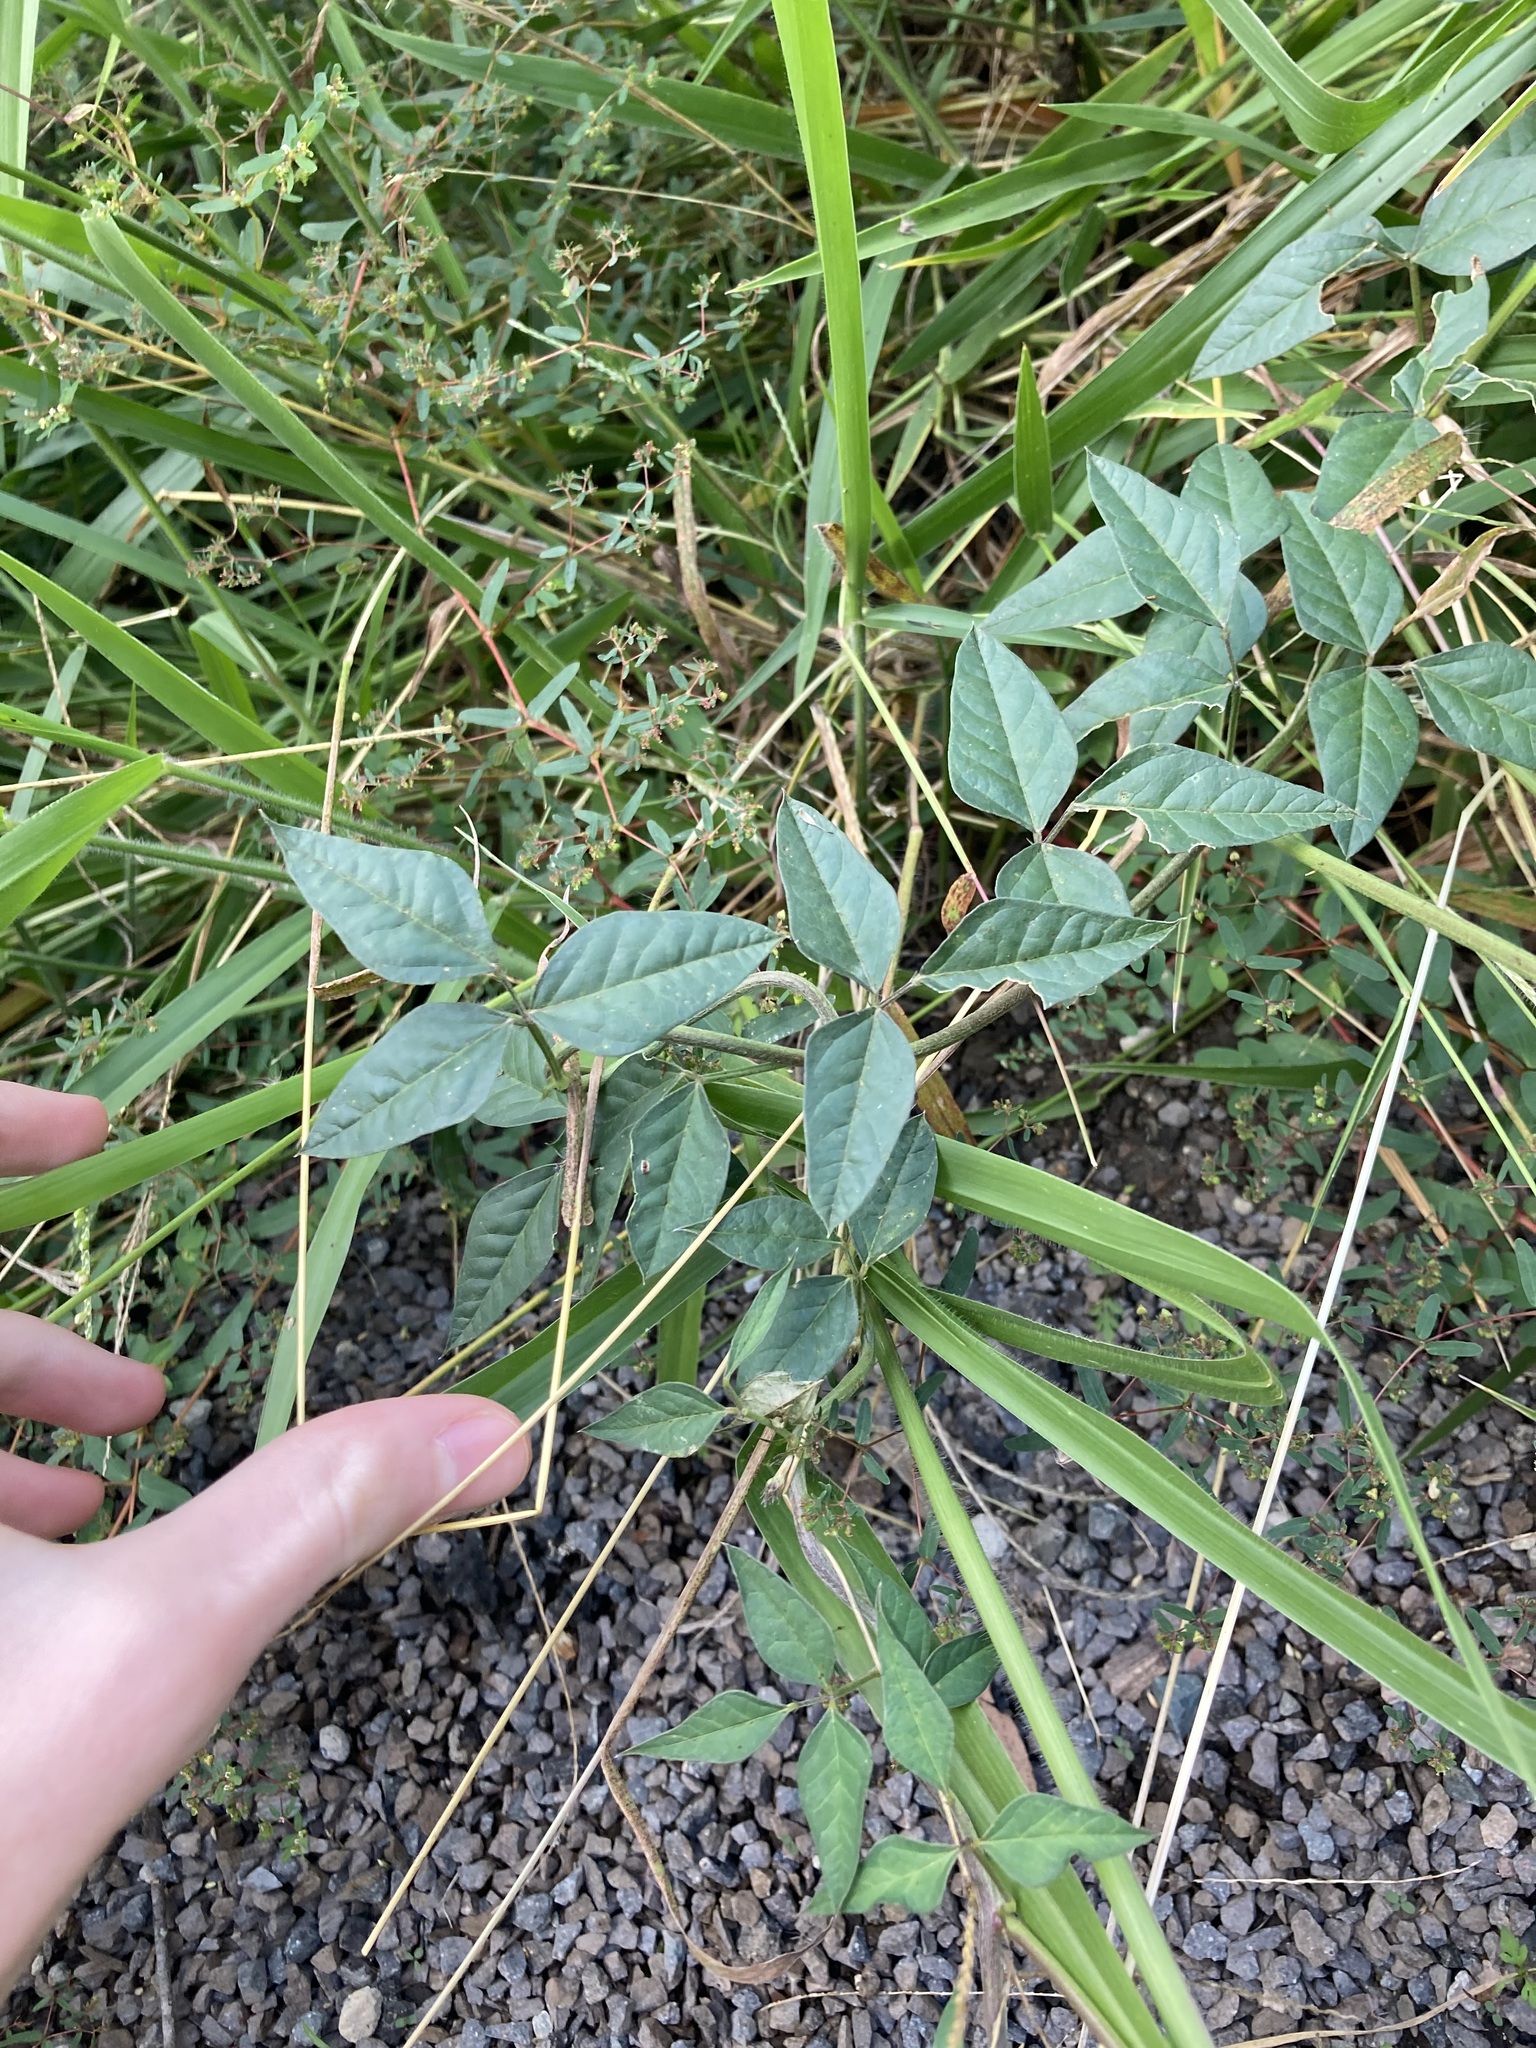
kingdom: Plantae
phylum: Tracheophyta
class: Magnoliopsida
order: Fabales
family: Fabaceae
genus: Macroptilium
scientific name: Macroptilium lathyroides
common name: Wild bushbean
